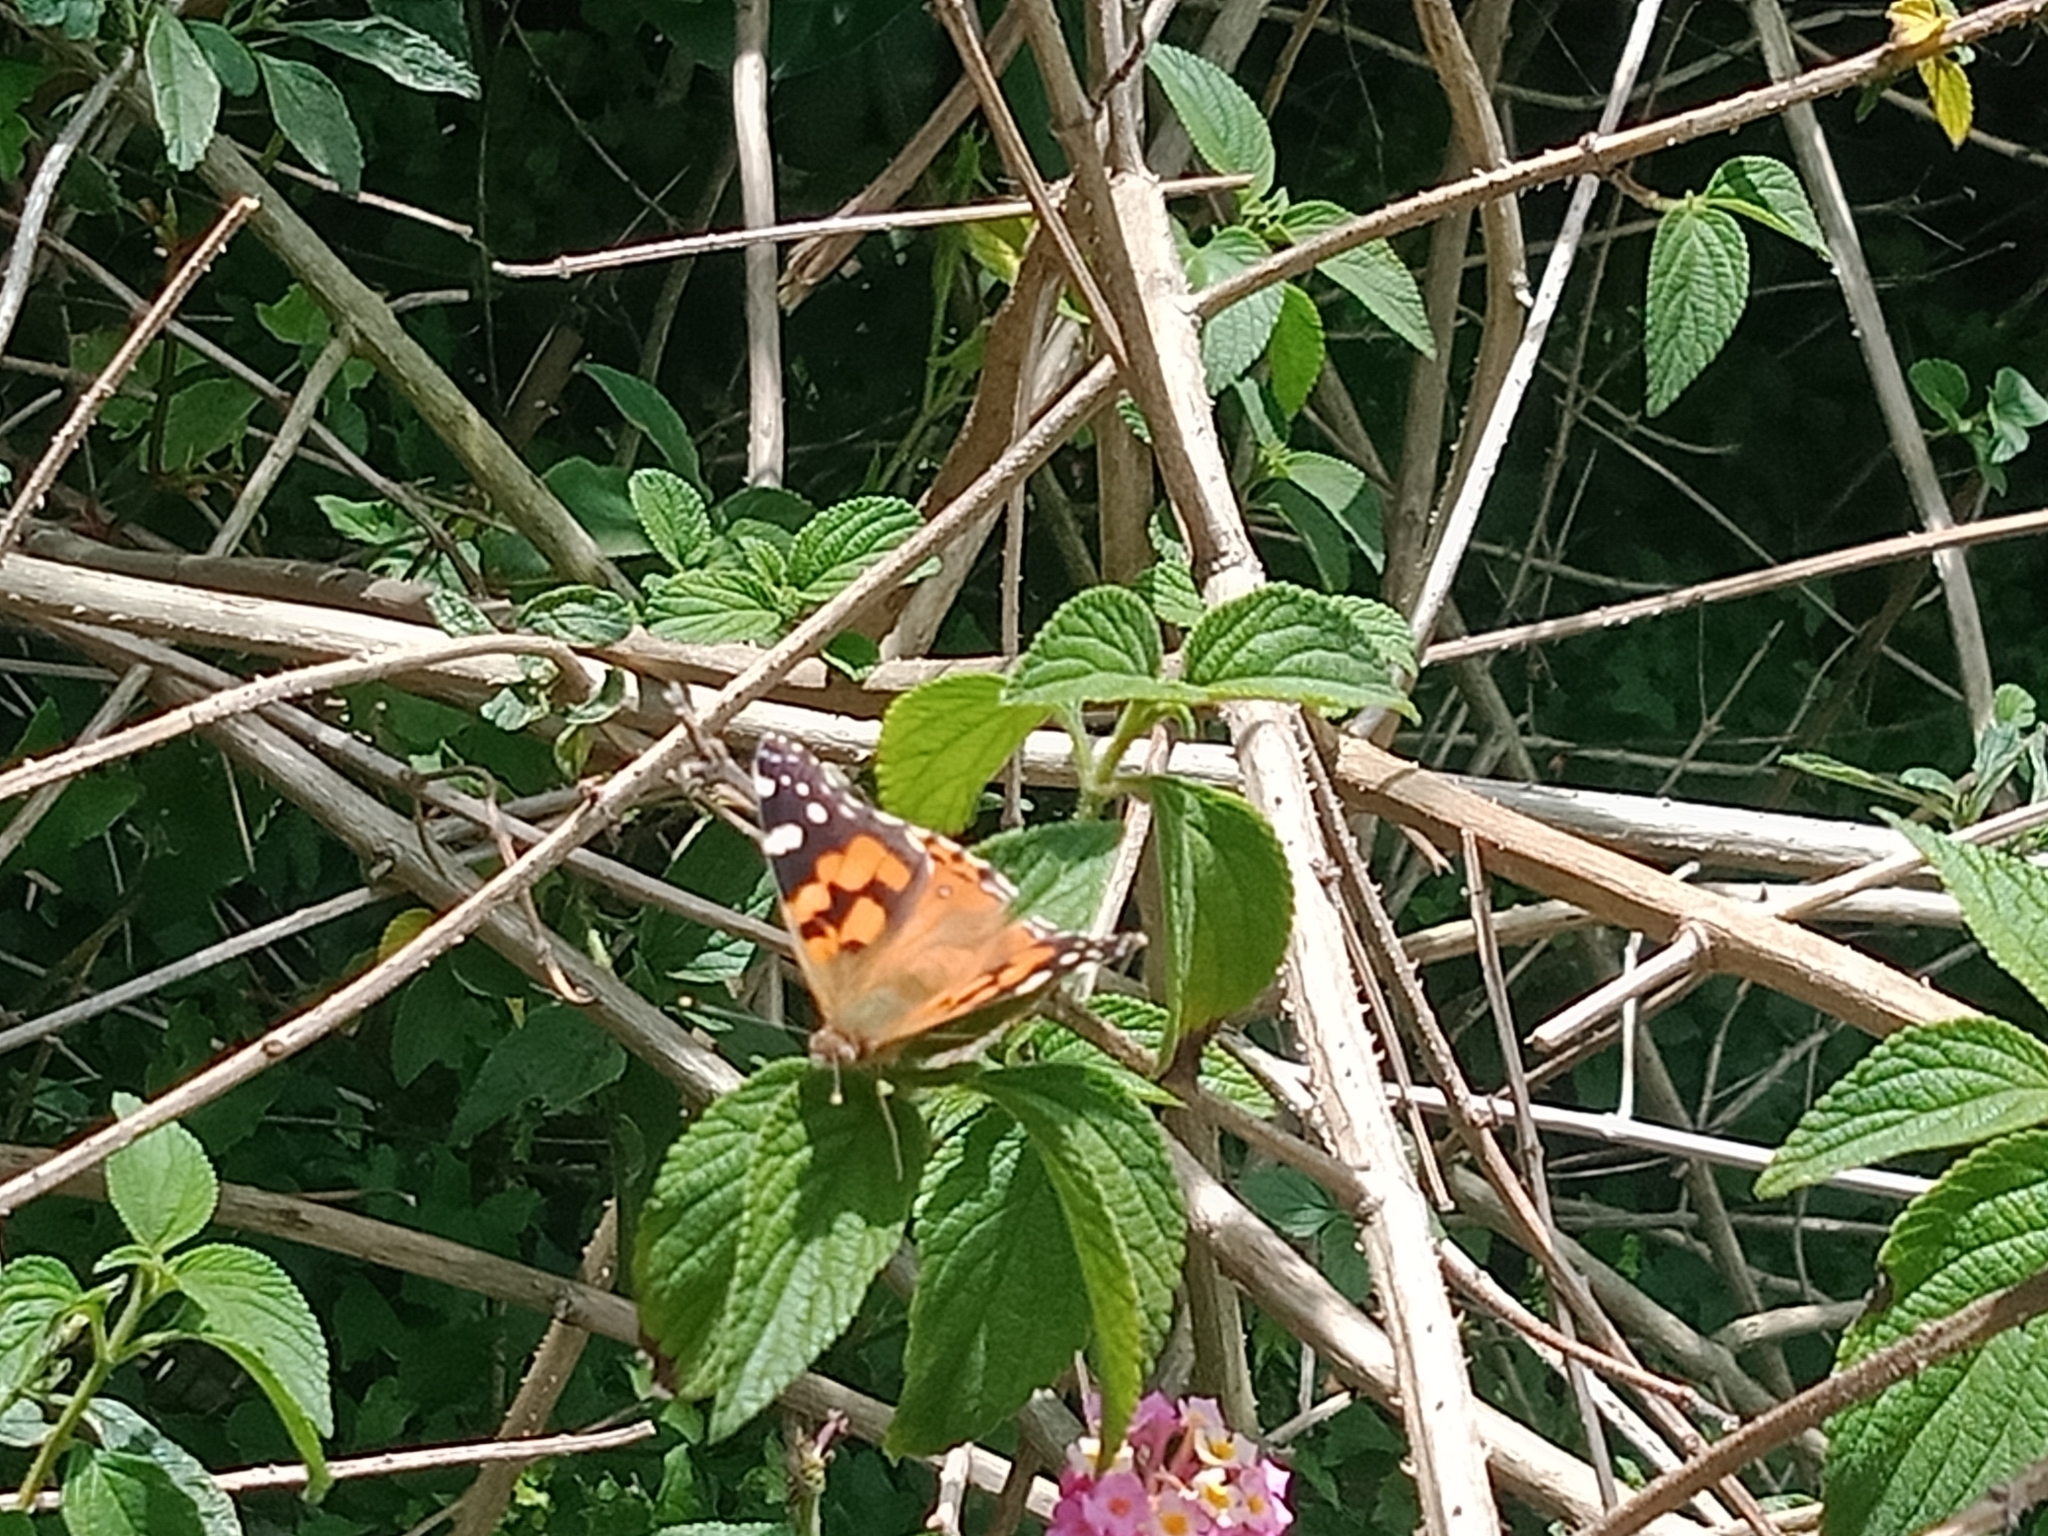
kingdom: Animalia
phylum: Arthropoda
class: Insecta
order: Lepidoptera
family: Nymphalidae
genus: Vanessa
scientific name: Vanessa kershawi
